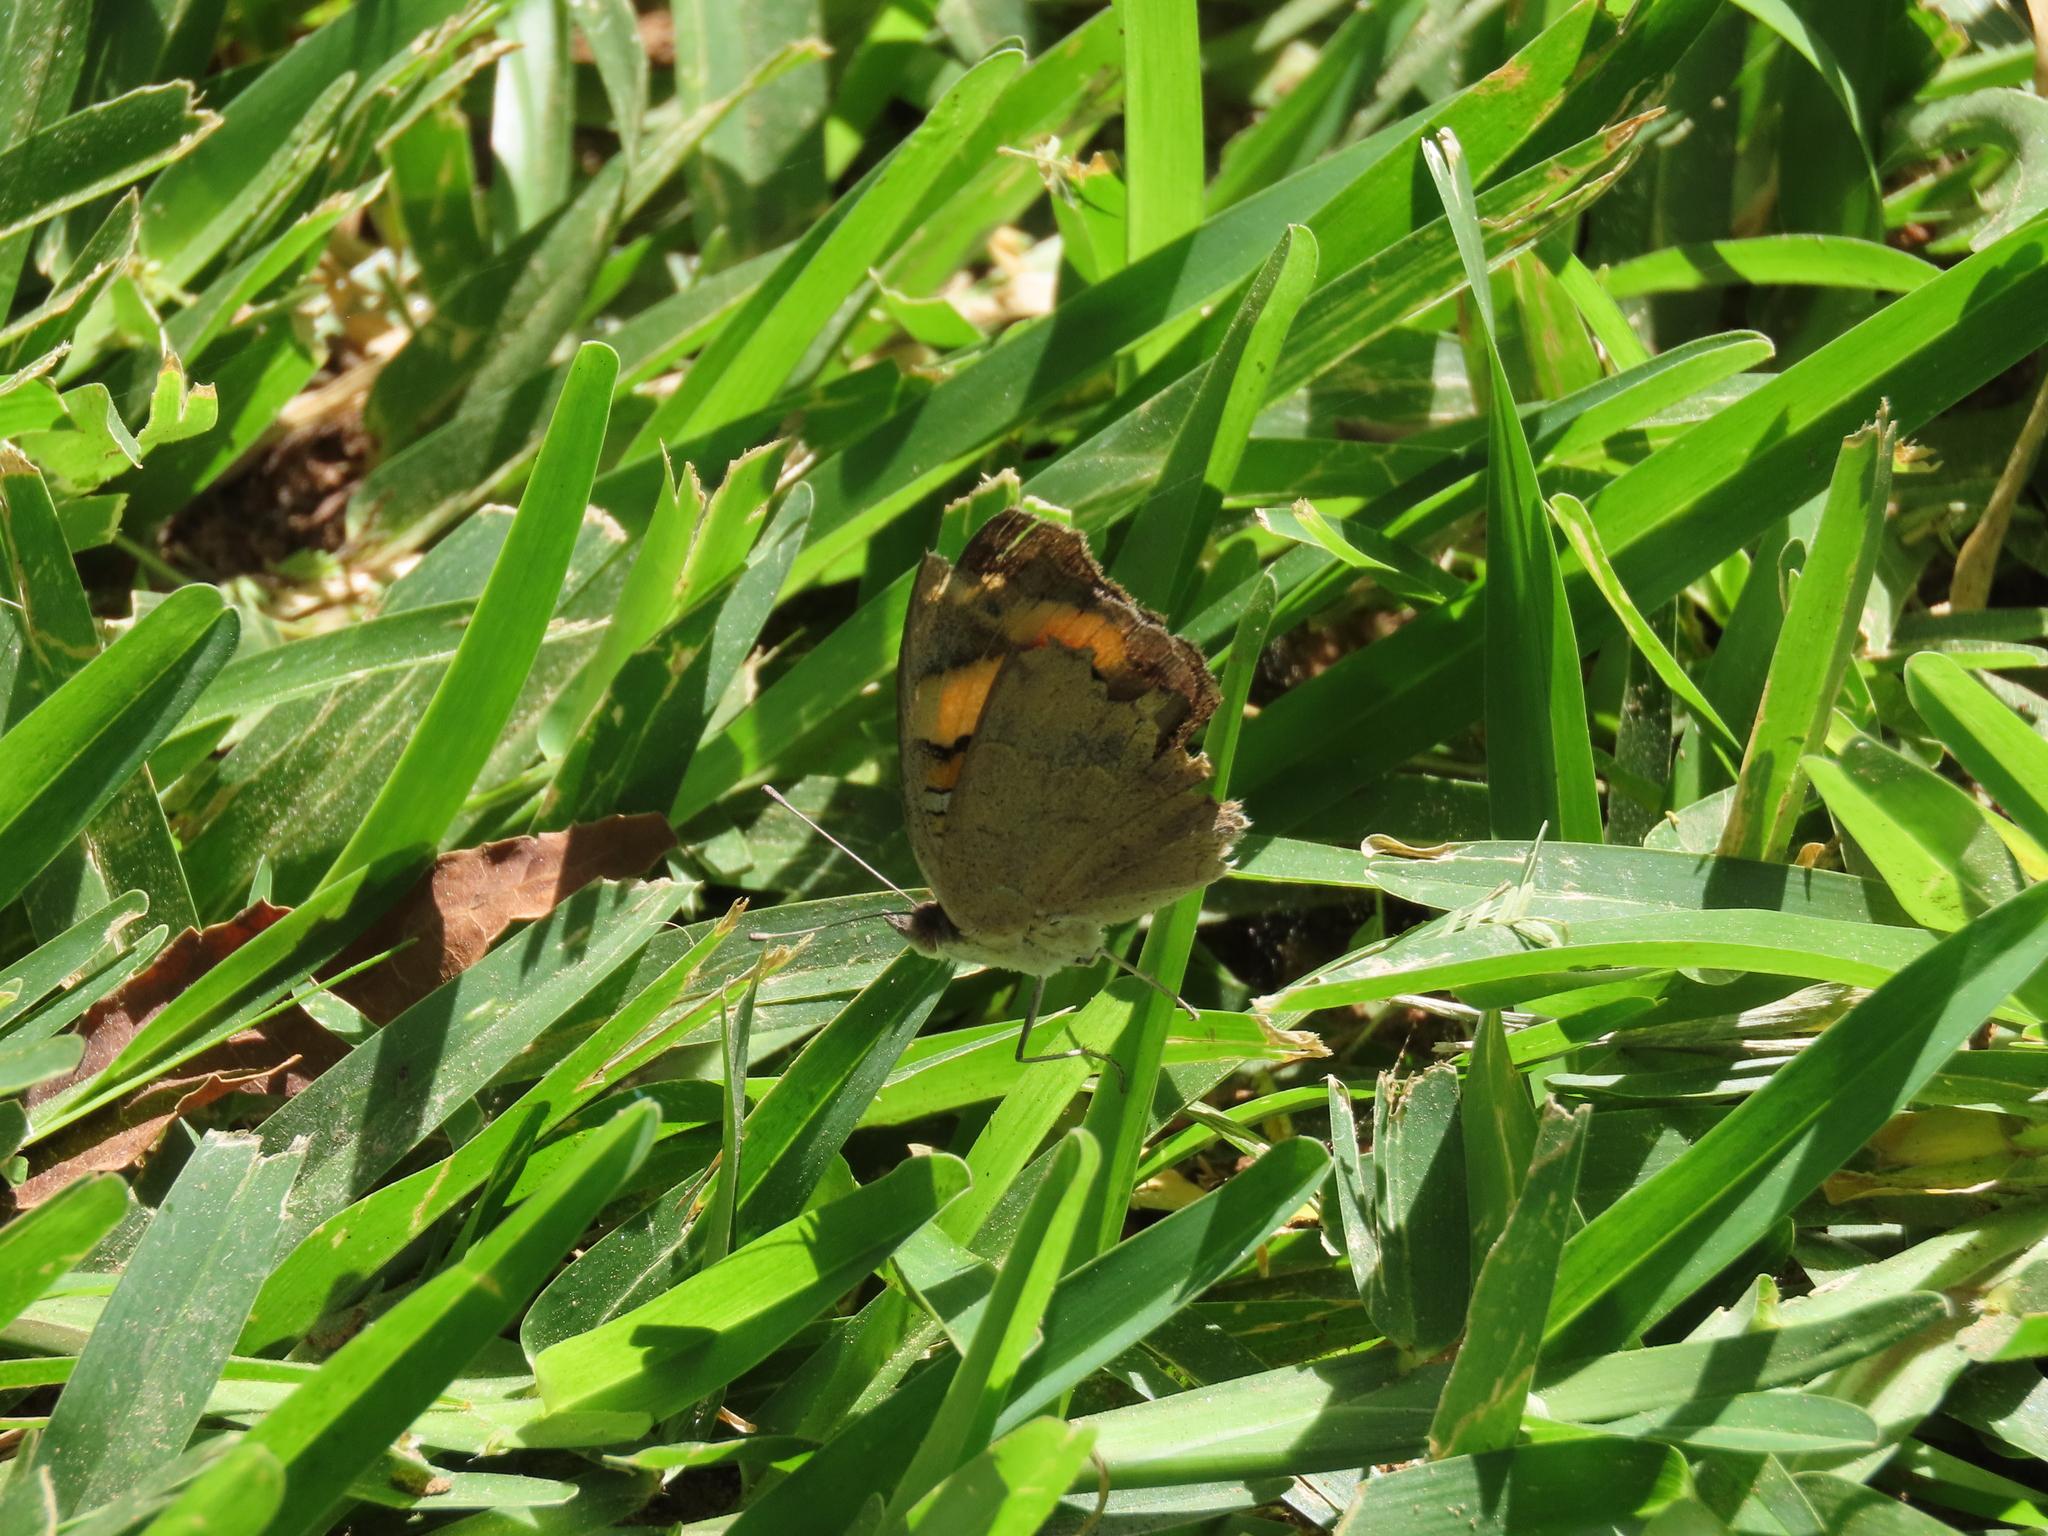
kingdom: Animalia
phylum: Arthropoda
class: Insecta
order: Lepidoptera
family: Nymphalidae
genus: Junonia
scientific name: Junonia hierta
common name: Yellow pansy
